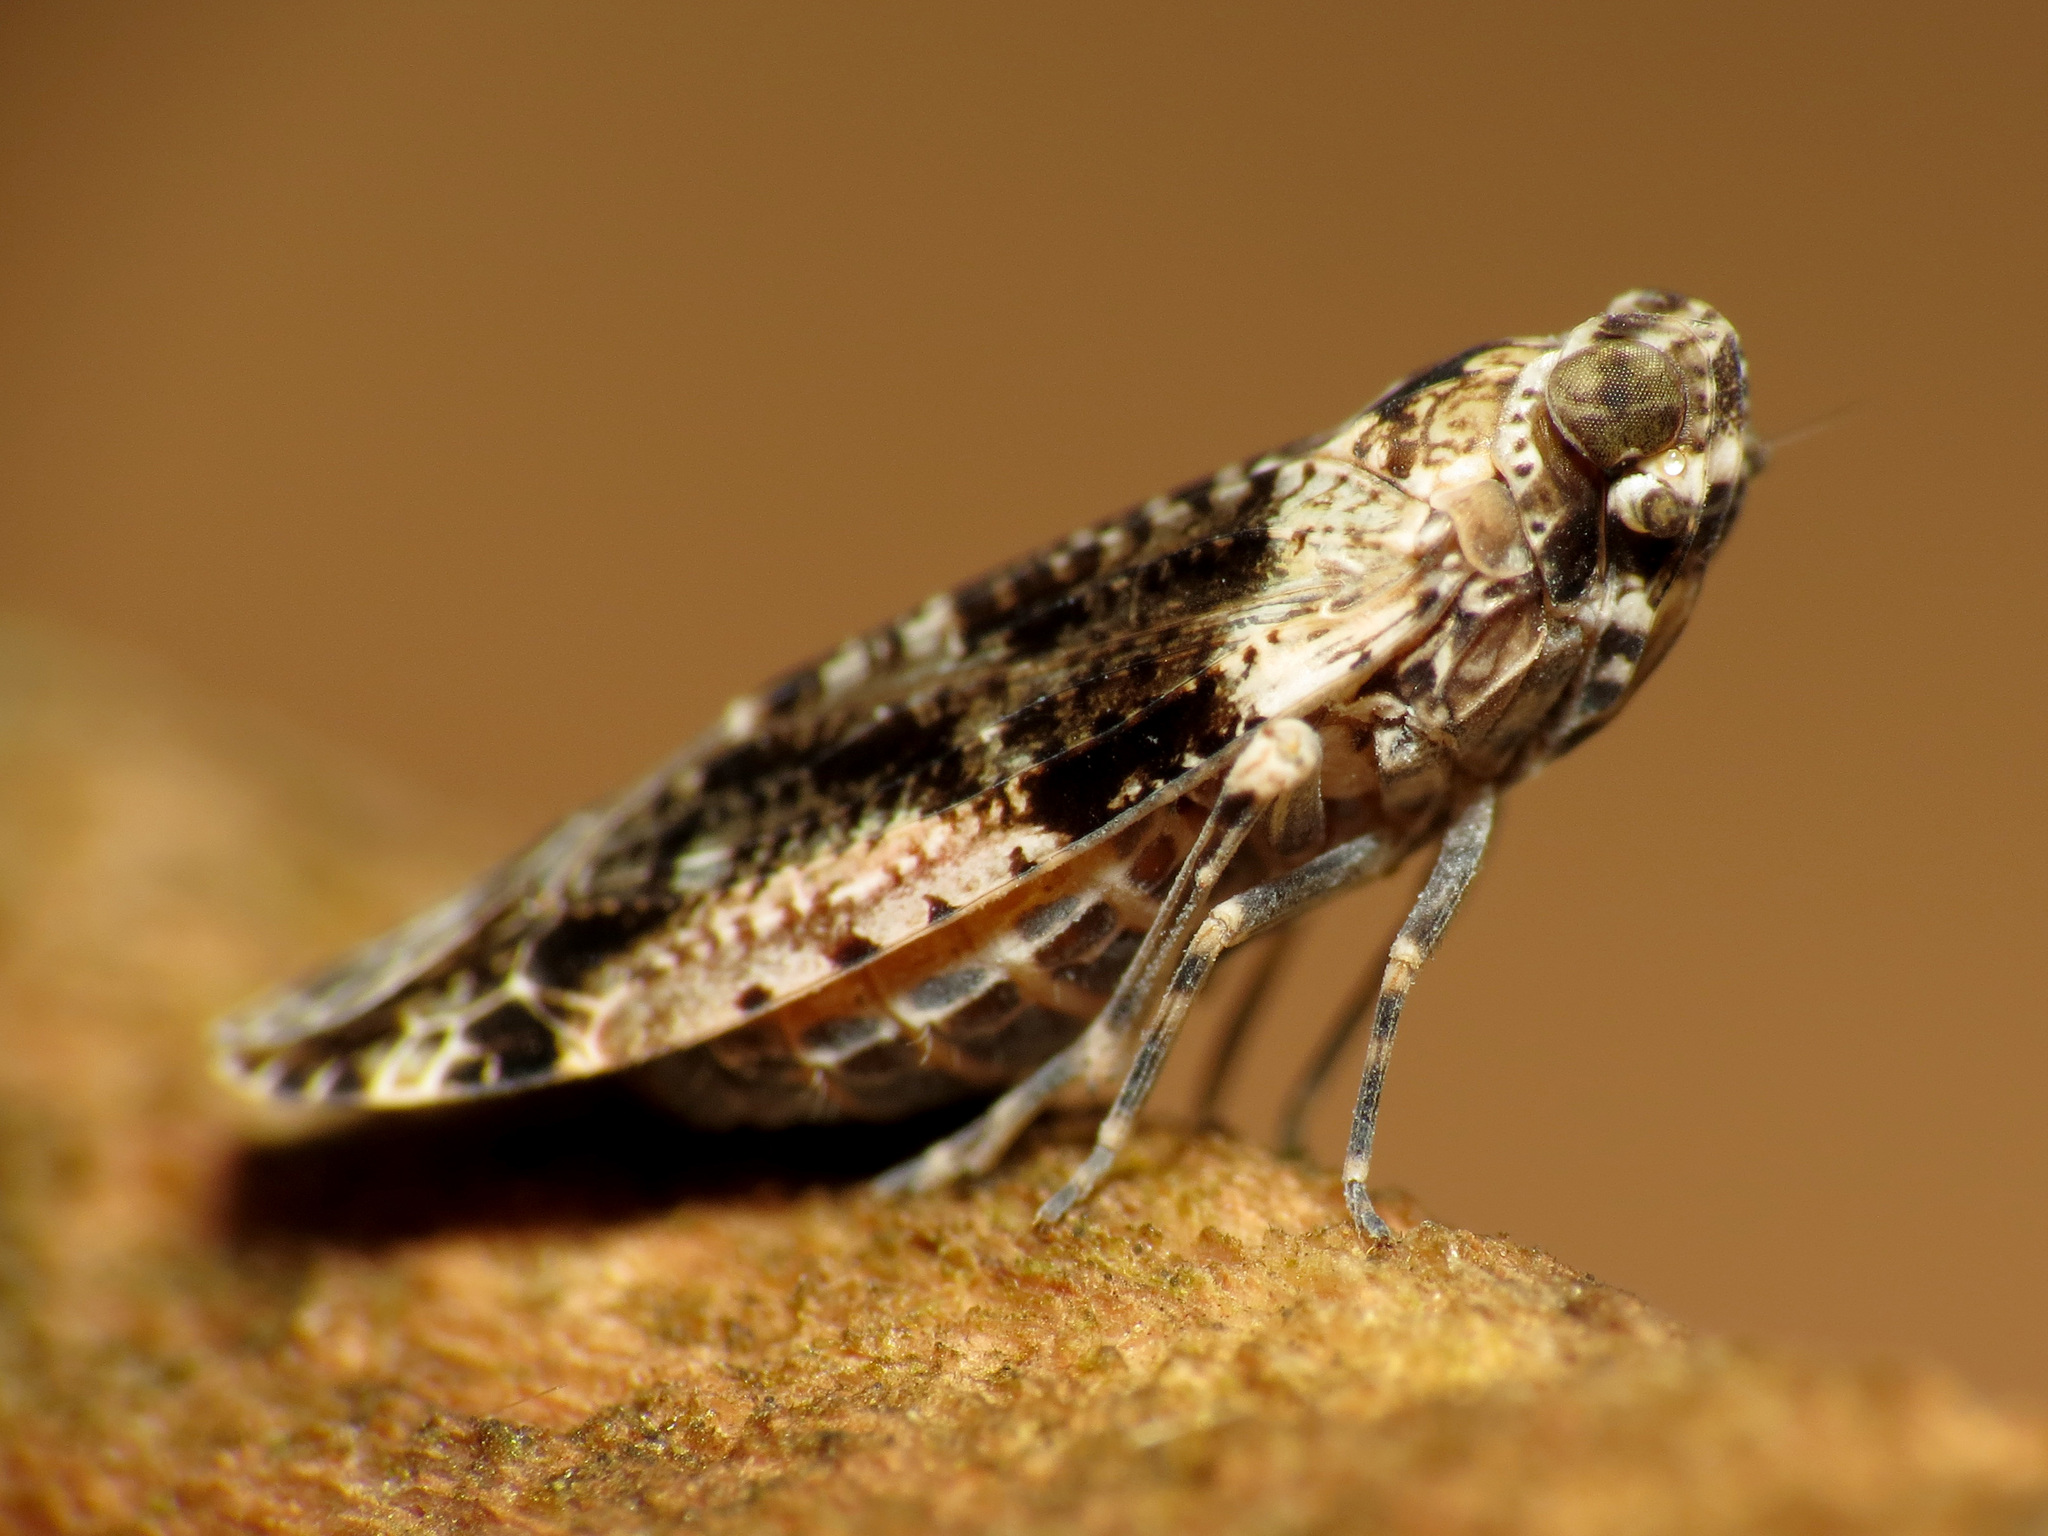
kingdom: Animalia
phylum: Arthropoda
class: Insecta
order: Hemiptera
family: Achilidae
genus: Catonia
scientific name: Catonia nava
